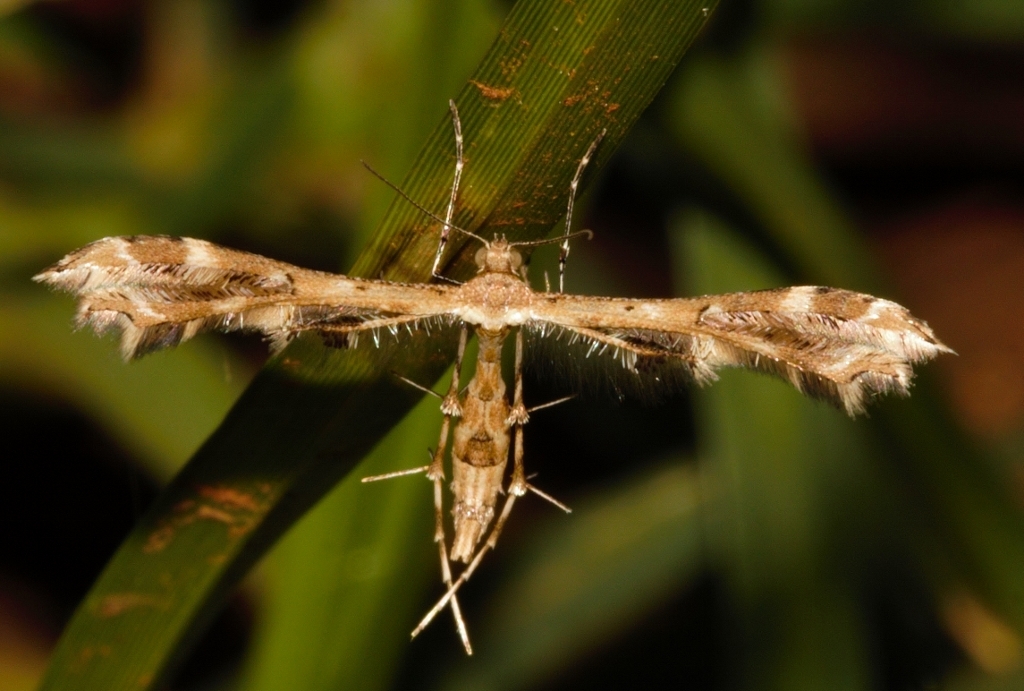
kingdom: Animalia
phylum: Arthropoda
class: Insecta
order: Lepidoptera
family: Pterophoridae
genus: Sphenarches
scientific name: Sphenarches anisodactylus
